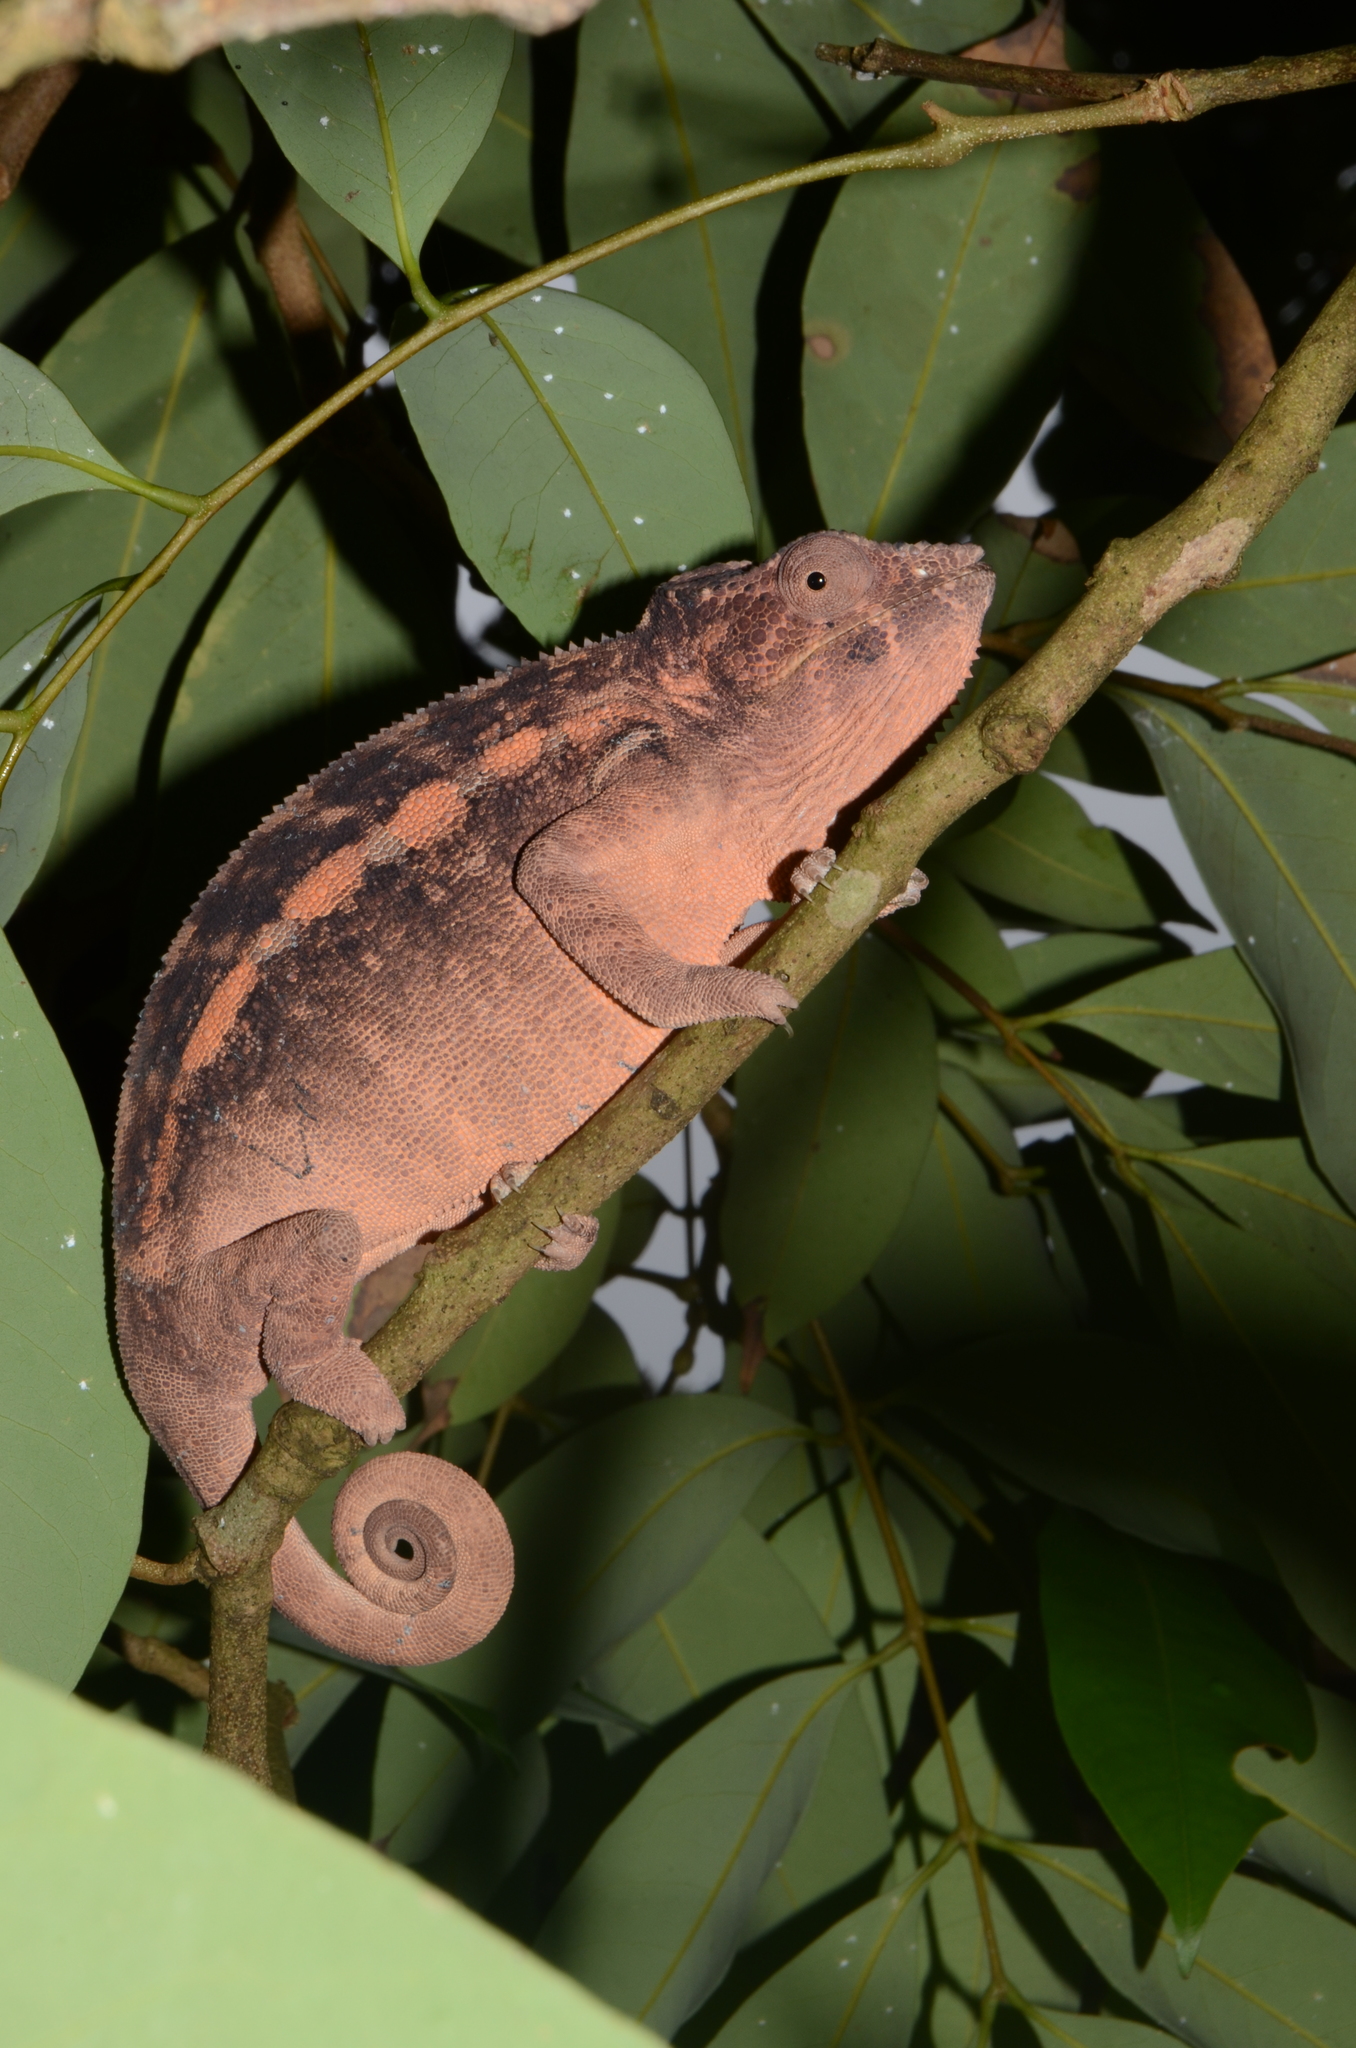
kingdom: Animalia
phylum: Chordata
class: Squamata
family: Chamaeleonidae
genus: Furcifer
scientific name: Furcifer pardalis
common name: Panther chameleon
